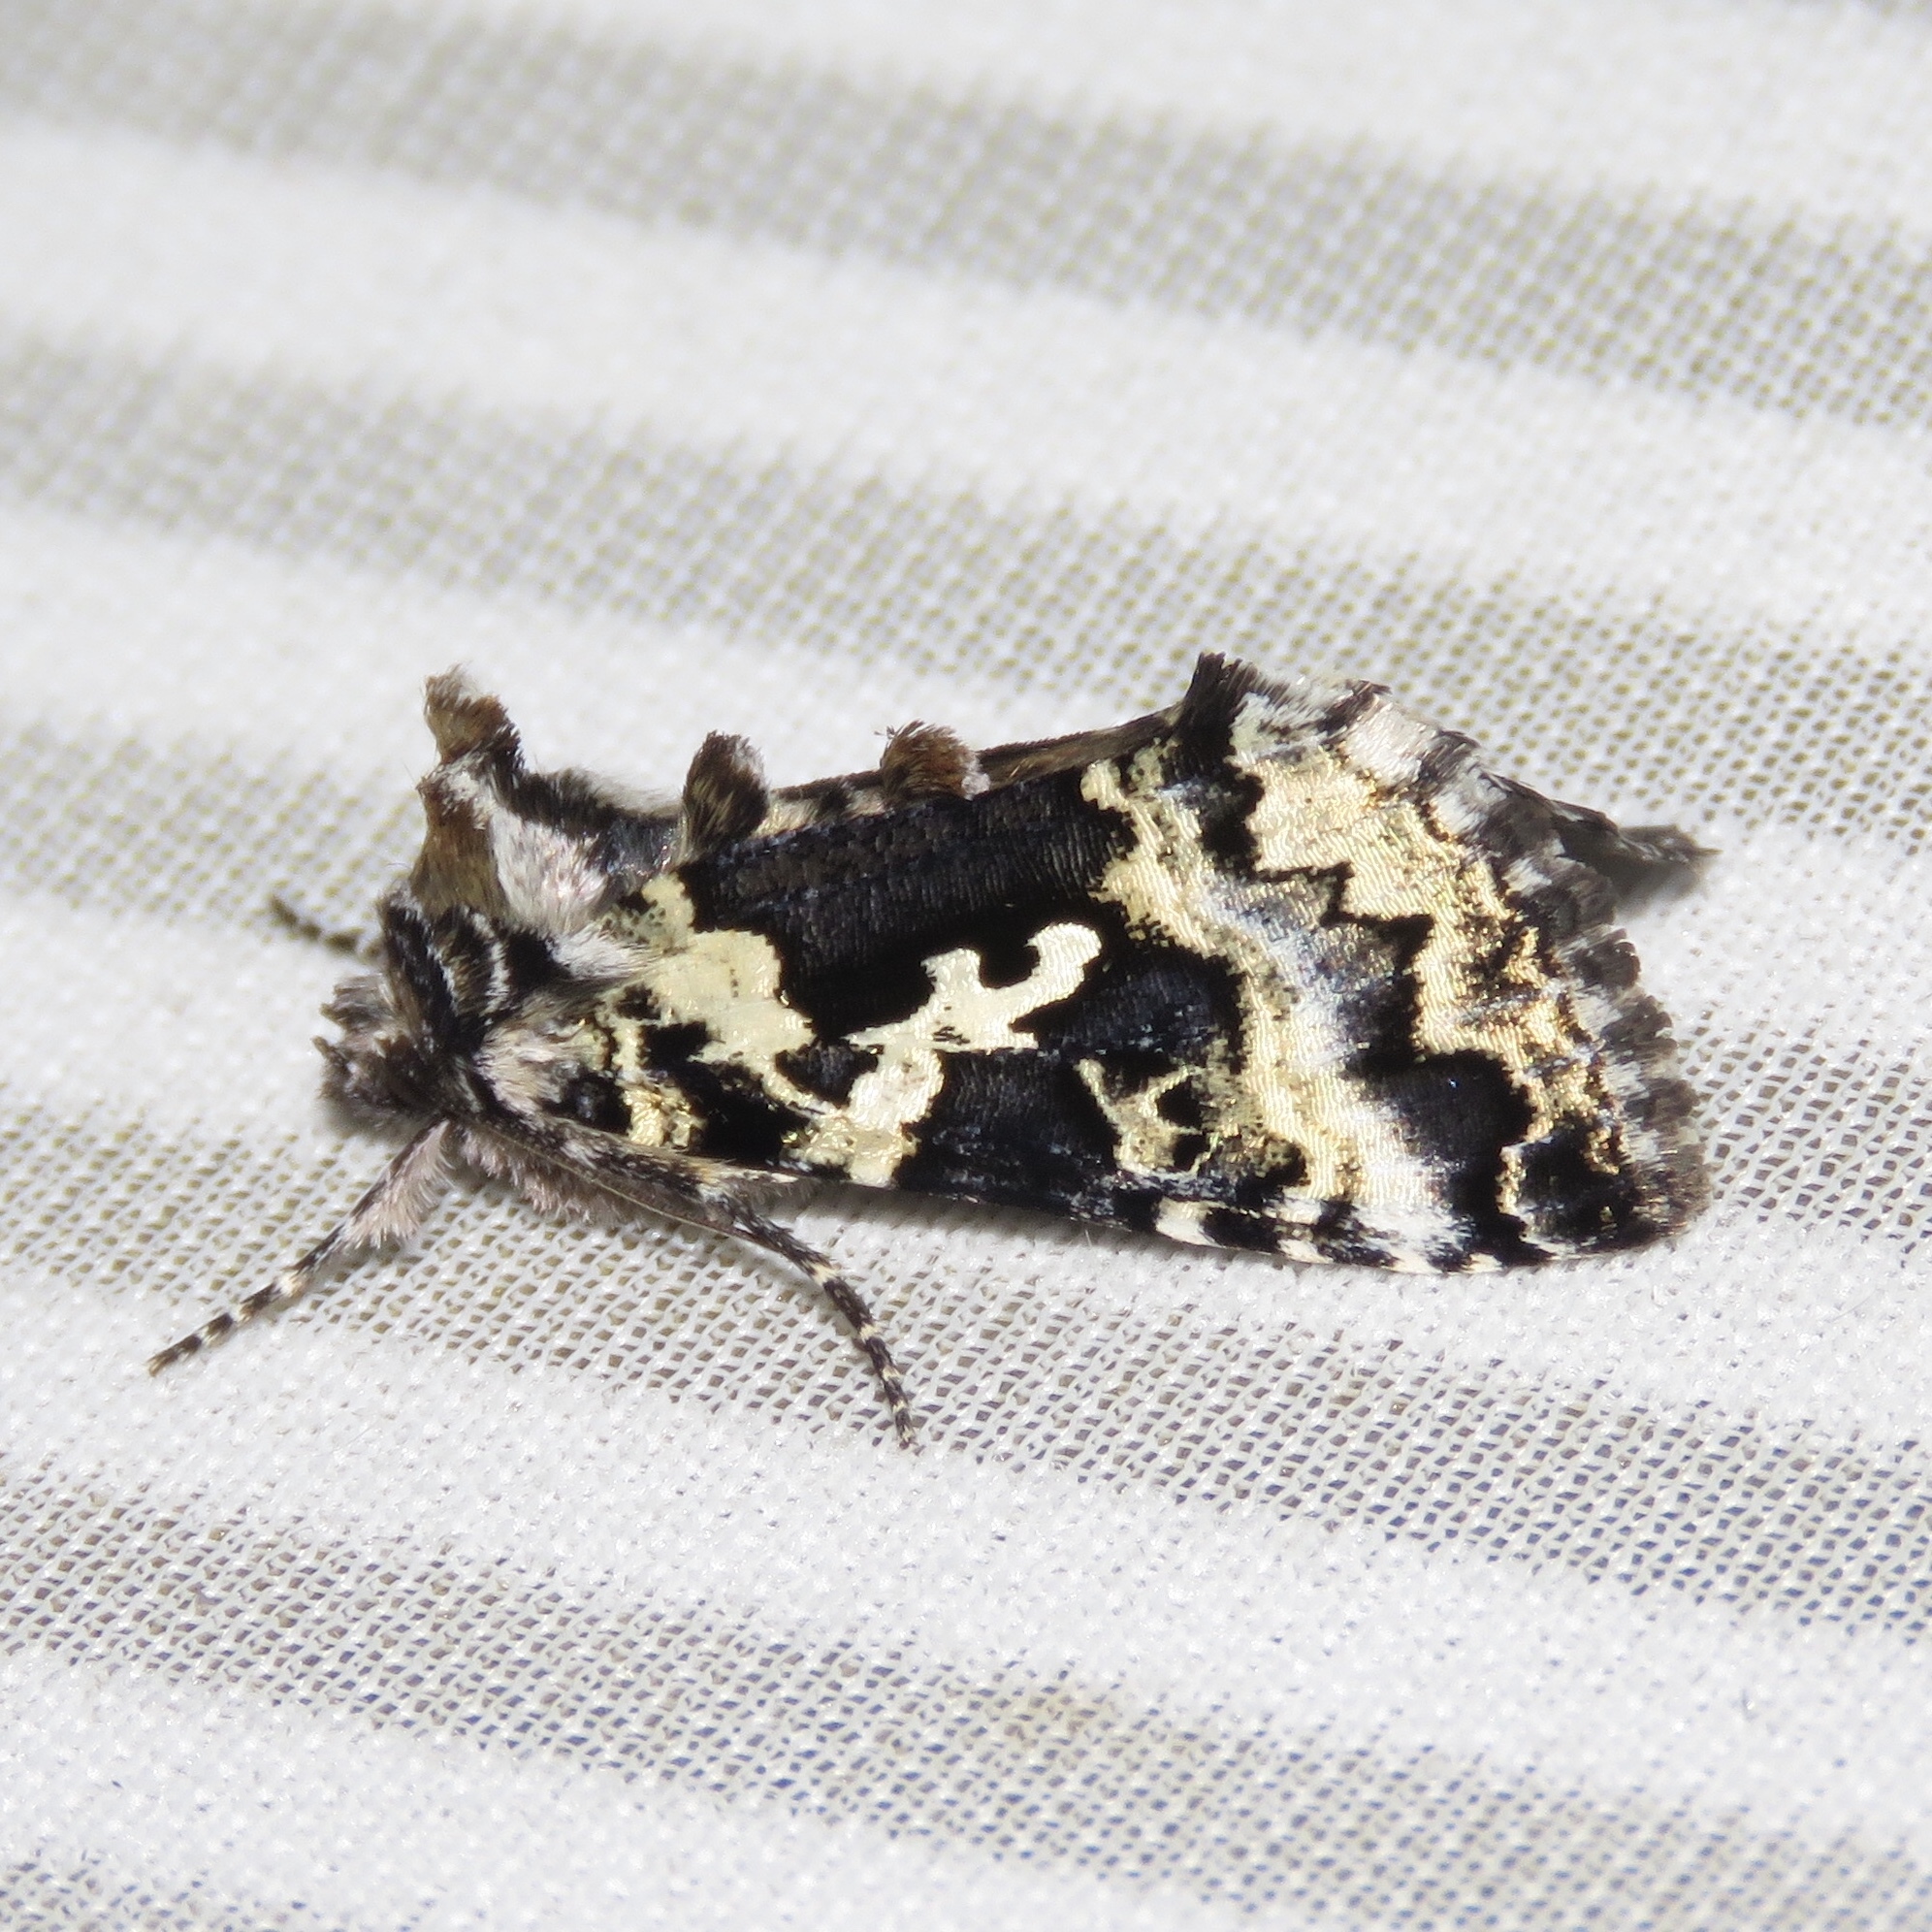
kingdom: Animalia
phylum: Arthropoda
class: Insecta
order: Lepidoptera
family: Noctuidae
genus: Syngrapha
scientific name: Syngrapha rectangula
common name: Angulated cutworm
